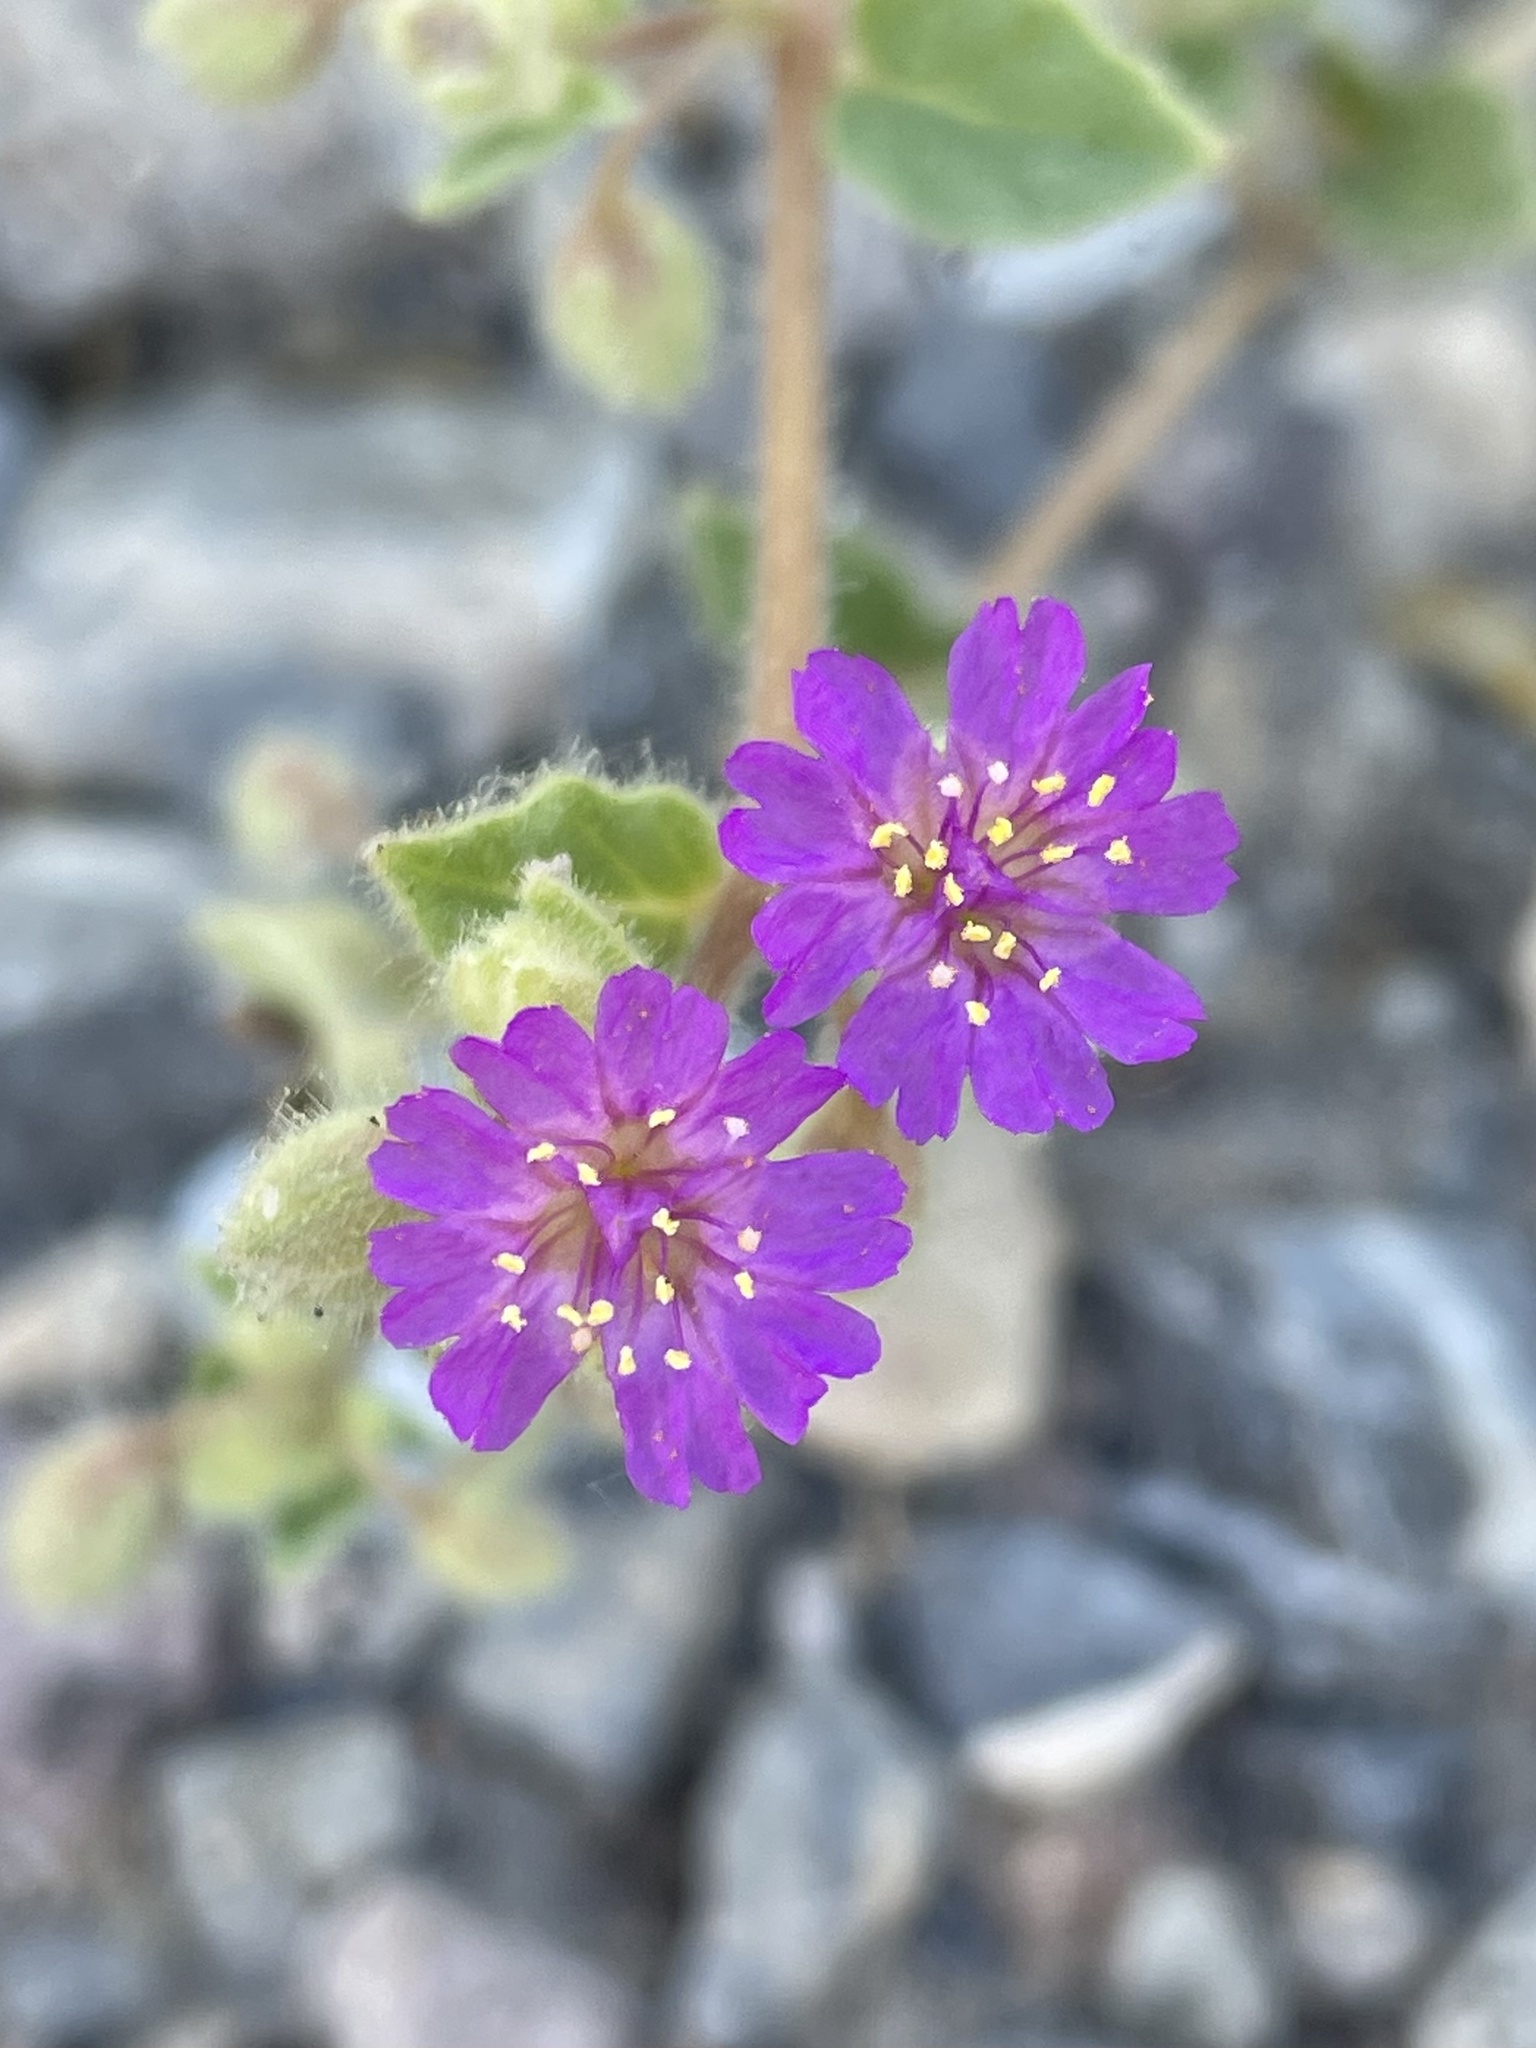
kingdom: Plantae
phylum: Tracheophyta
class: Magnoliopsida
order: Caryophyllales
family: Nyctaginaceae
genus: Allionia
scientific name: Allionia incarnata
